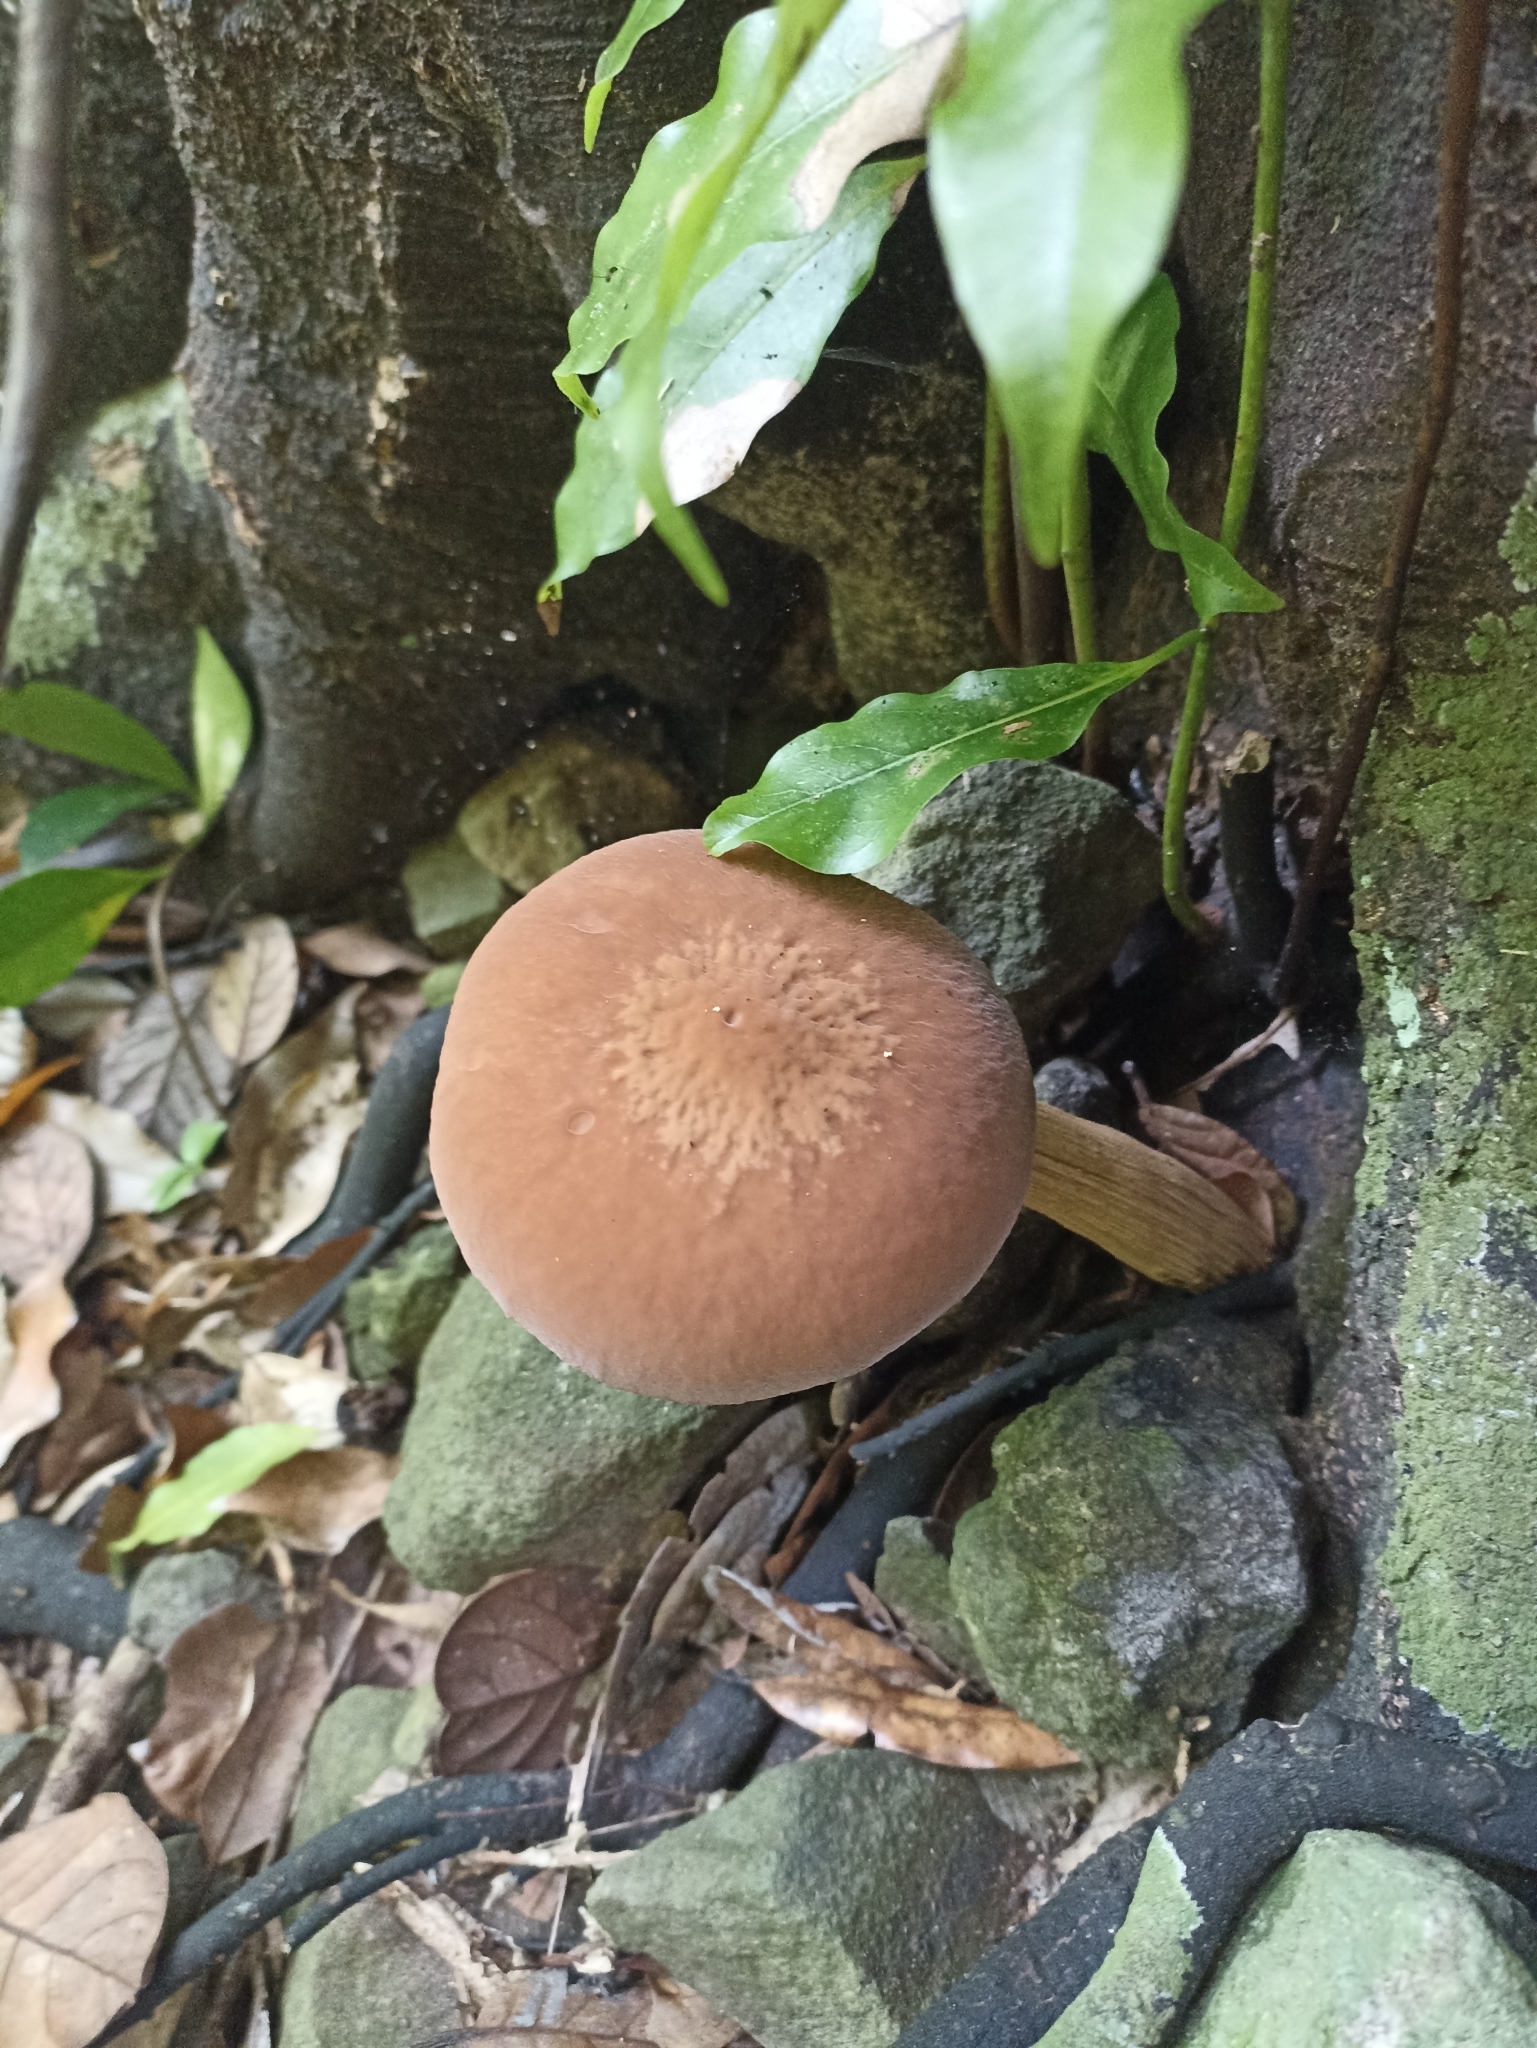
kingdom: Fungi
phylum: Basidiomycota
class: Agaricomycetes
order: Agaricales
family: Tubariaceae
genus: Cyclocybe
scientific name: Cyclocybe parasitica
